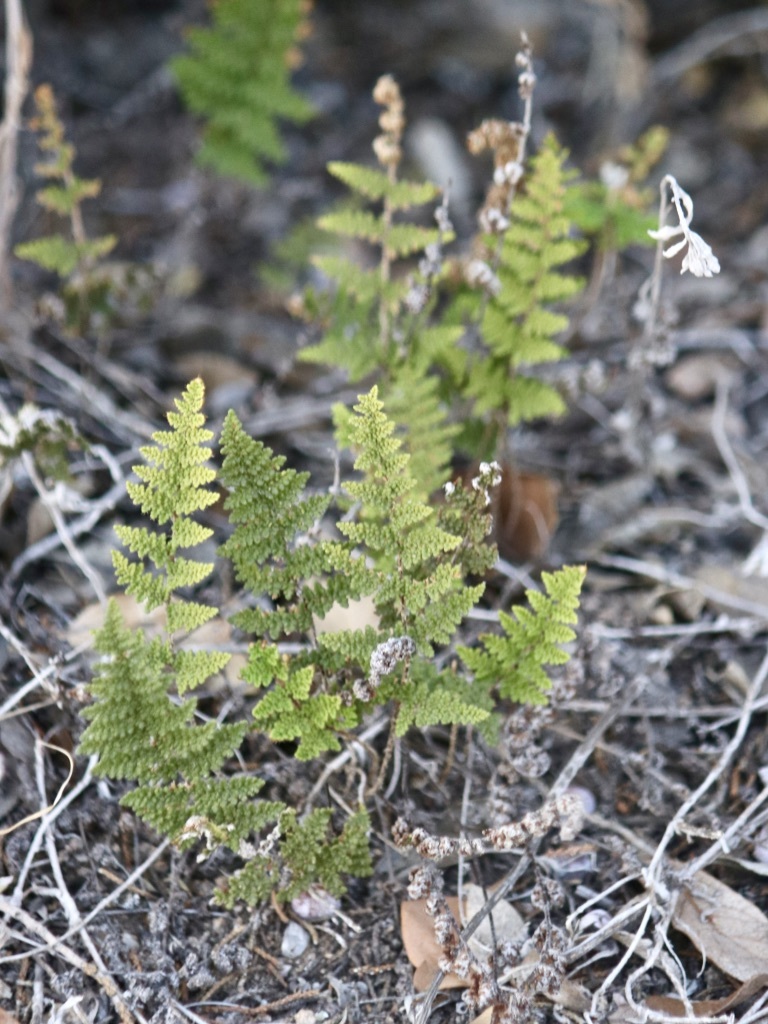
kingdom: Plantae
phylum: Tracheophyta
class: Polypodiopsida
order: Polypodiales
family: Pteridaceae
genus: Myriopteris
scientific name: Myriopteris wootonii
